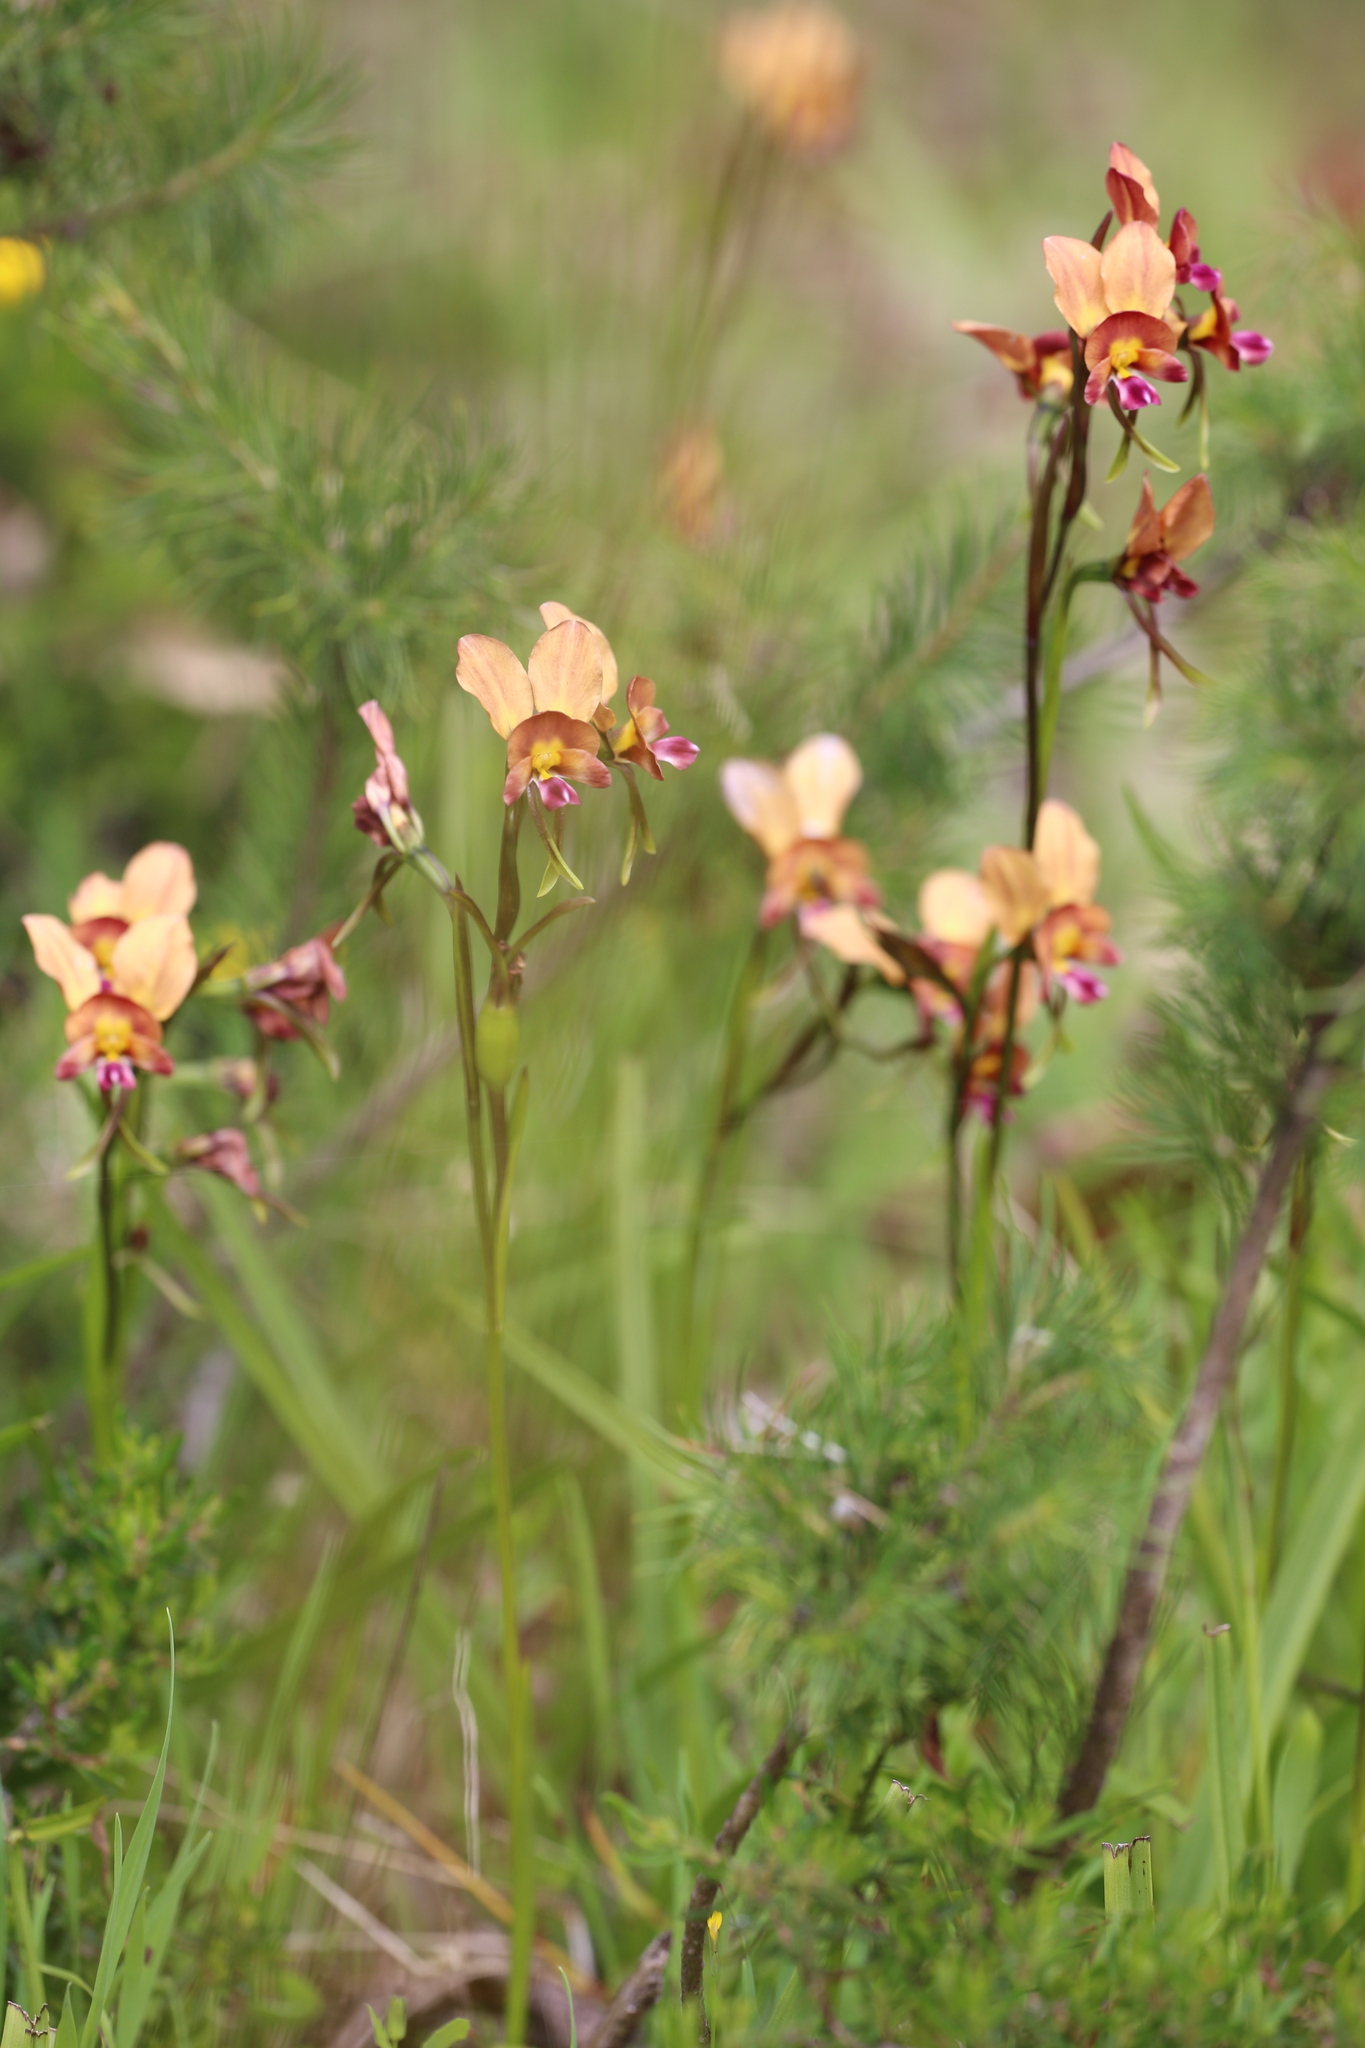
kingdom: Plantae
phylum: Tracheophyta
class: Liliopsida
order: Asparagales
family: Orchidaceae
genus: Diuris
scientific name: Diuris jonesii
